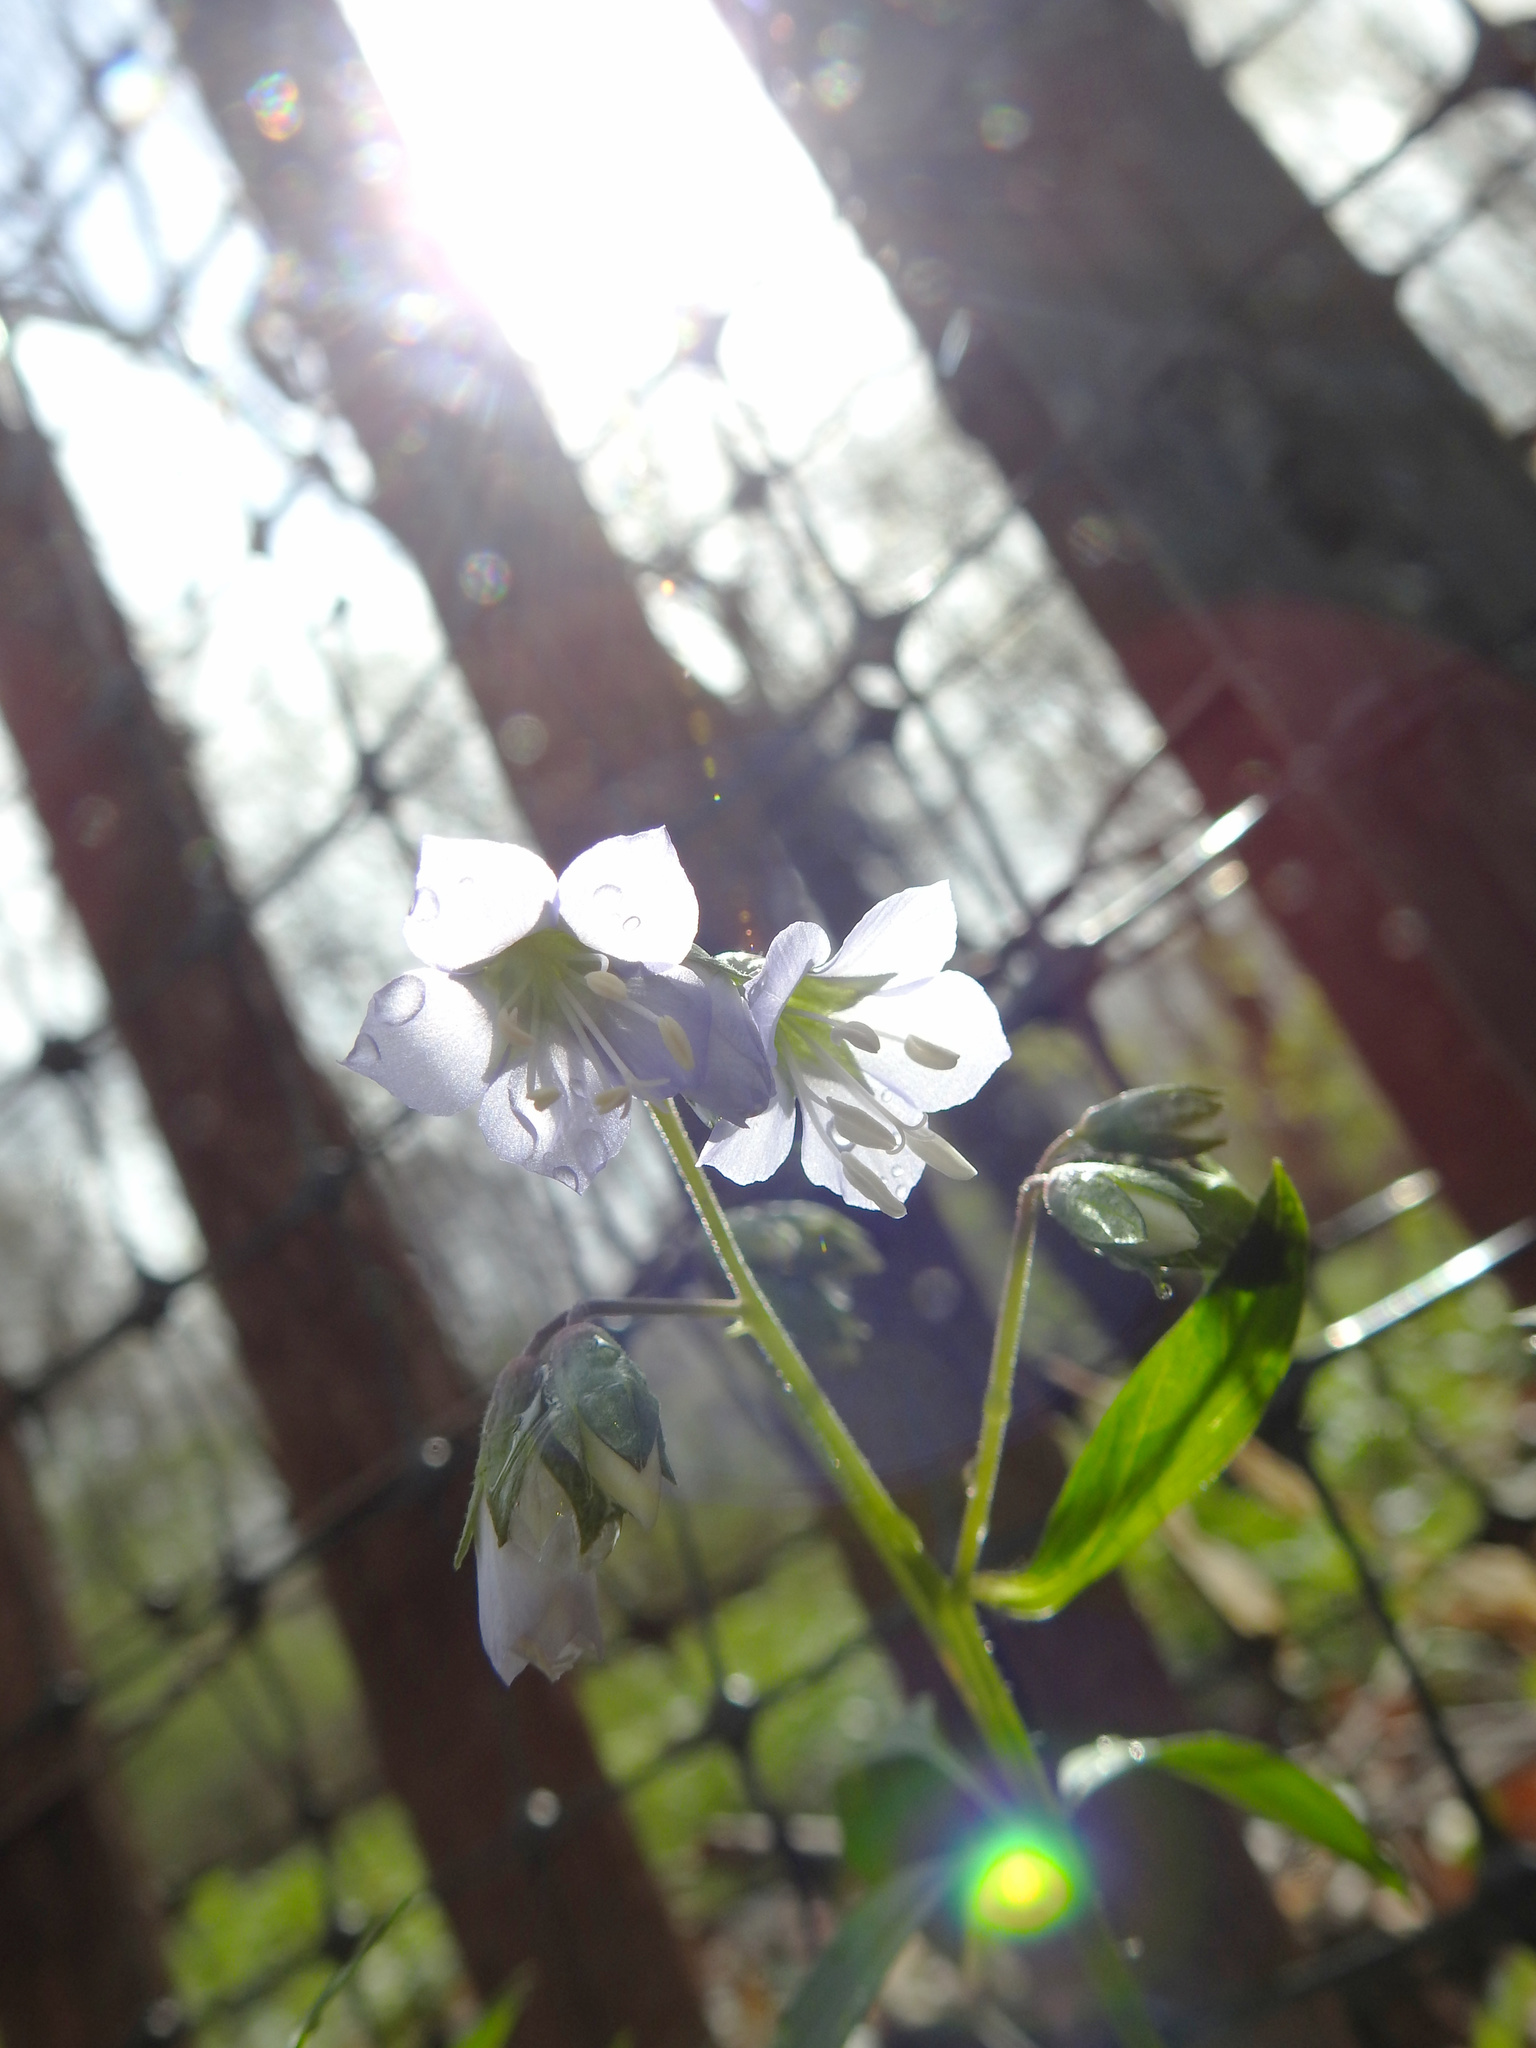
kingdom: Plantae
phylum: Tracheophyta
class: Magnoliopsida
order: Ericales
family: Polemoniaceae
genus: Polemonium
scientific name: Polemonium reptans
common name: Creeping jacob's-ladder
